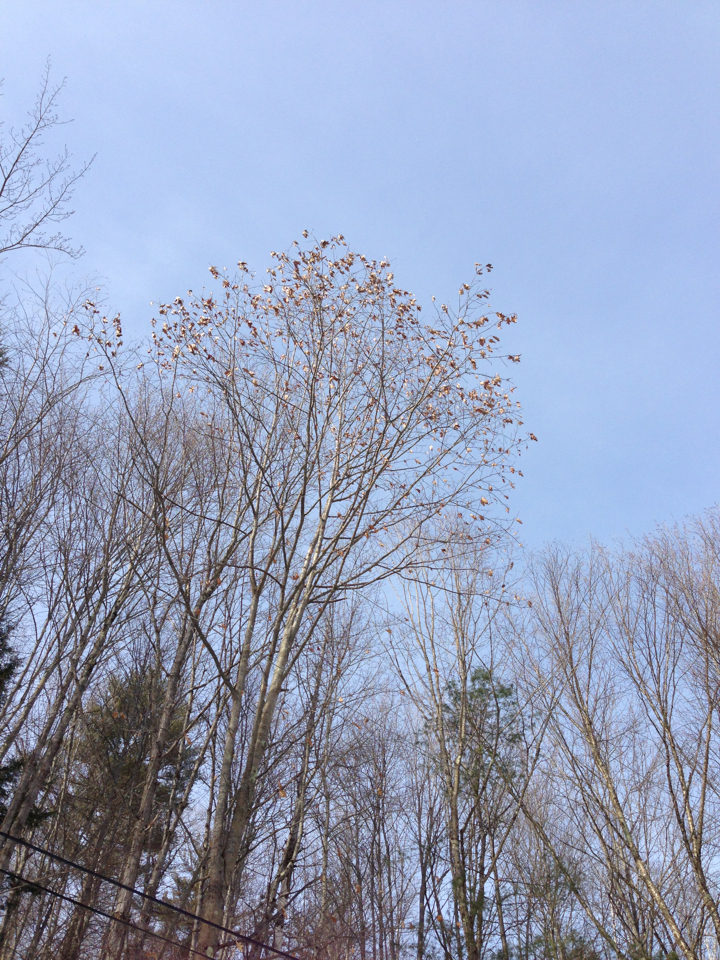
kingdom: Plantae
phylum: Tracheophyta
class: Magnoliopsida
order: Fagales
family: Fagaceae
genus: Quercus
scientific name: Quercus rubra
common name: Red oak
